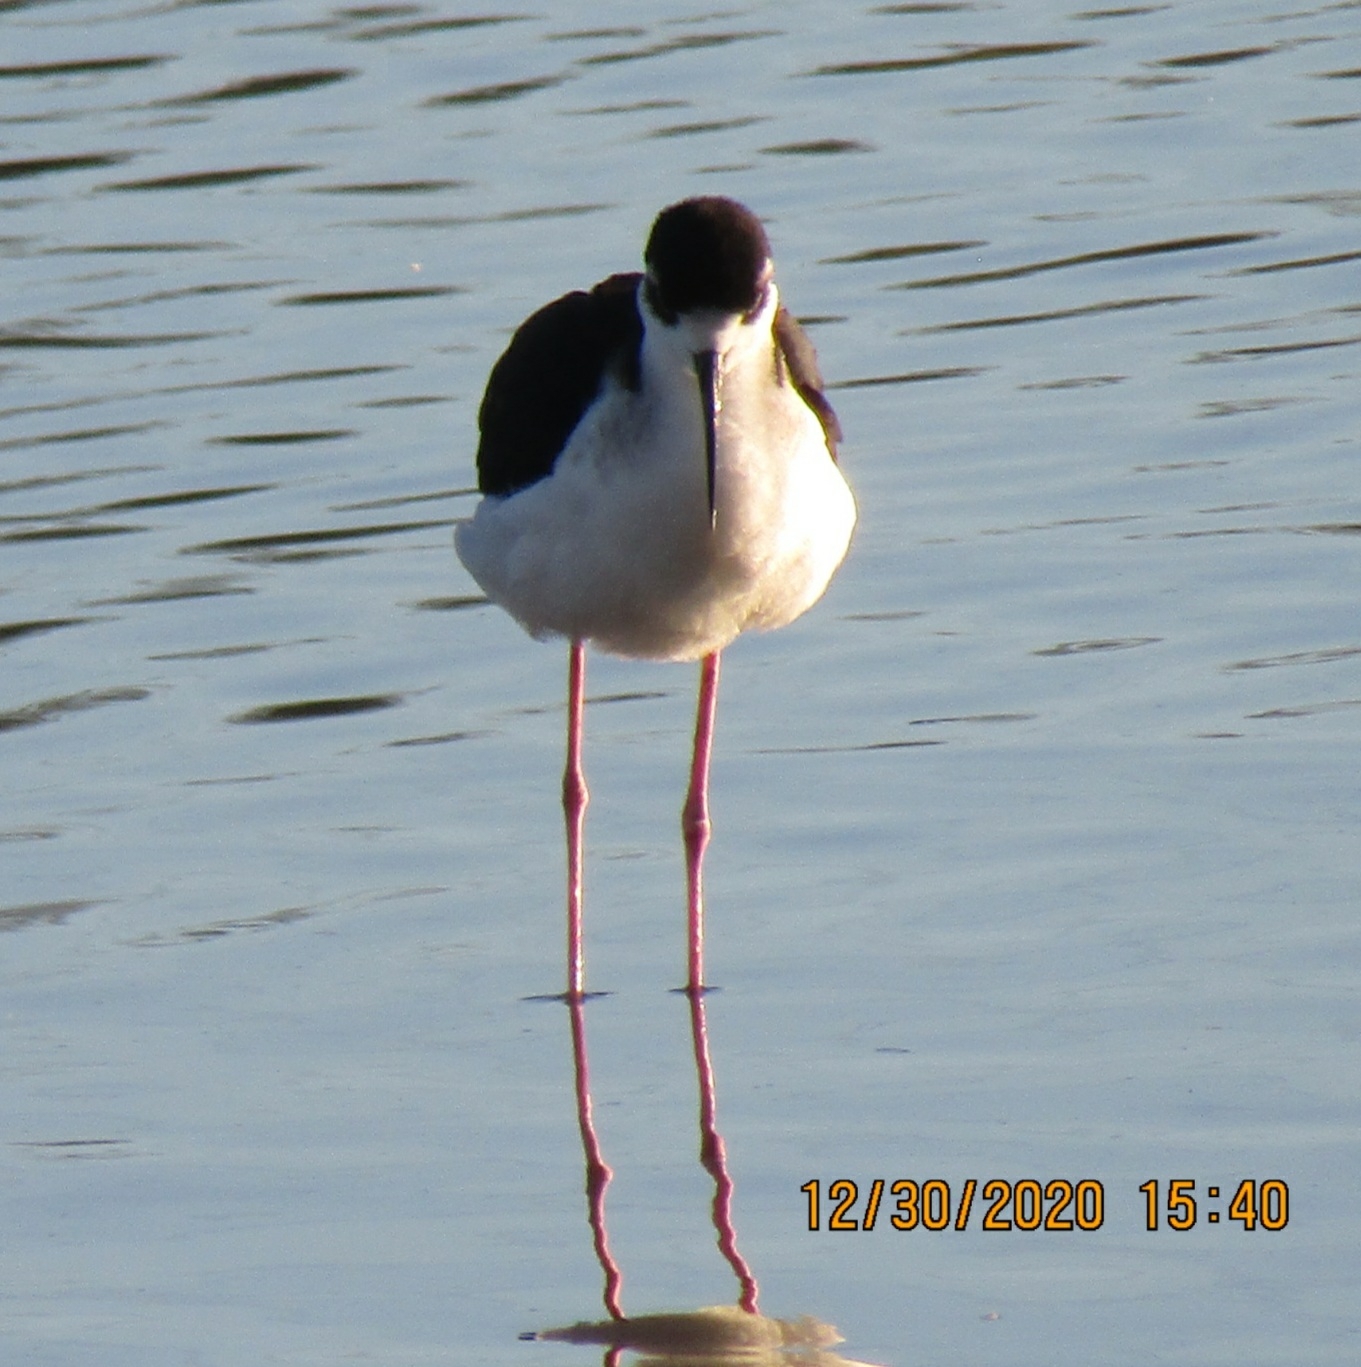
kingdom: Animalia
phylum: Chordata
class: Aves
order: Charadriiformes
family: Recurvirostridae
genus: Himantopus
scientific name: Himantopus mexicanus
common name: Black-necked stilt
